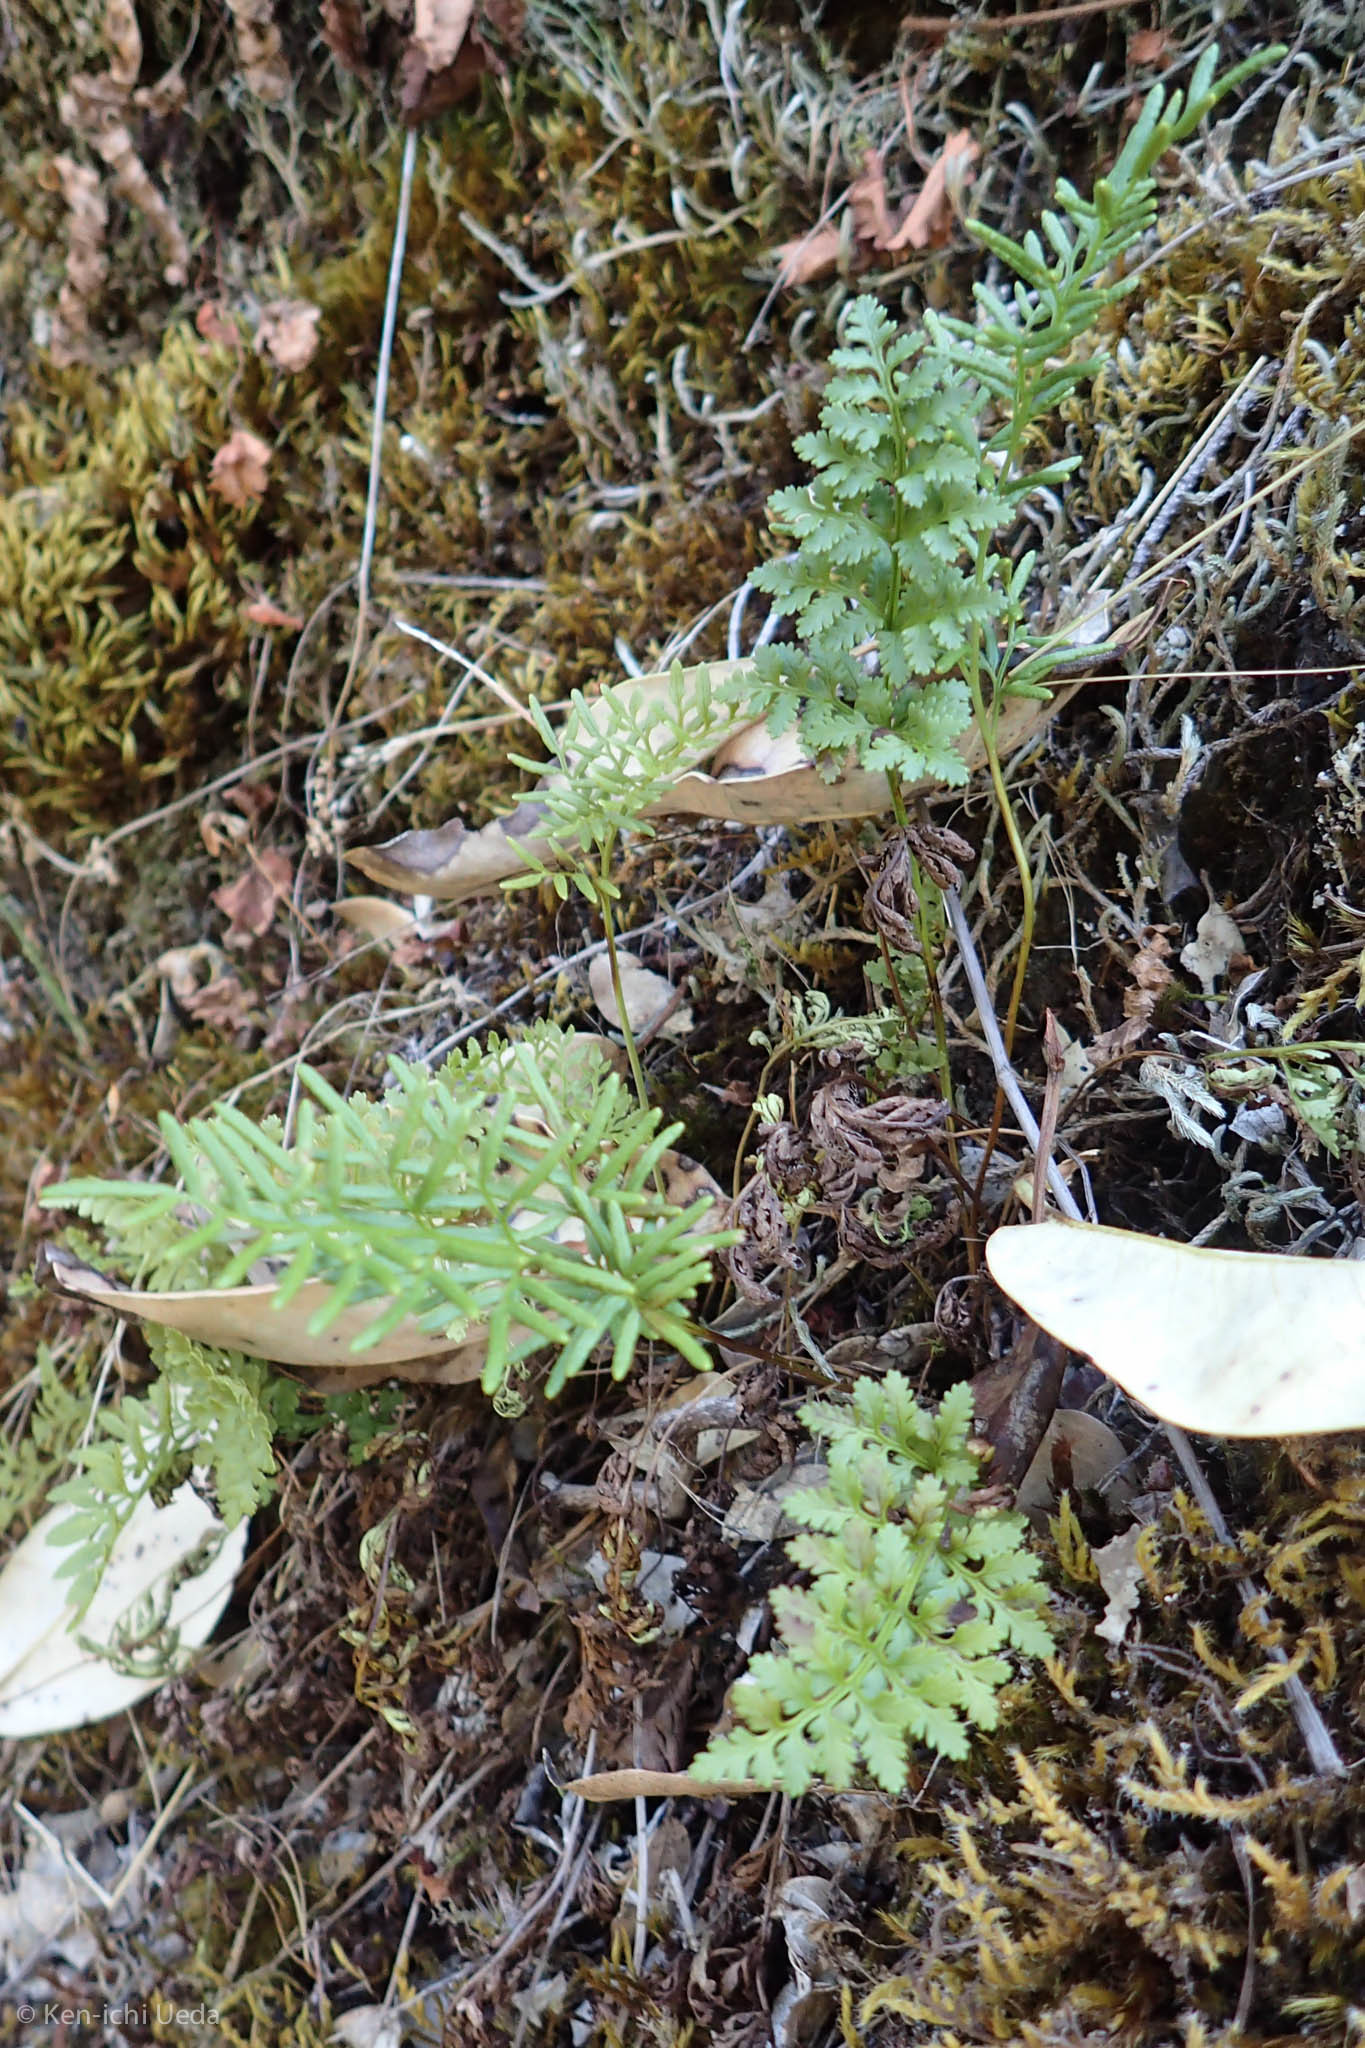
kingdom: Plantae
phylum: Tracheophyta
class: Polypodiopsida
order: Polypodiales
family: Pteridaceae
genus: Cryptogramma
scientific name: Cryptogramma acrostichoides
